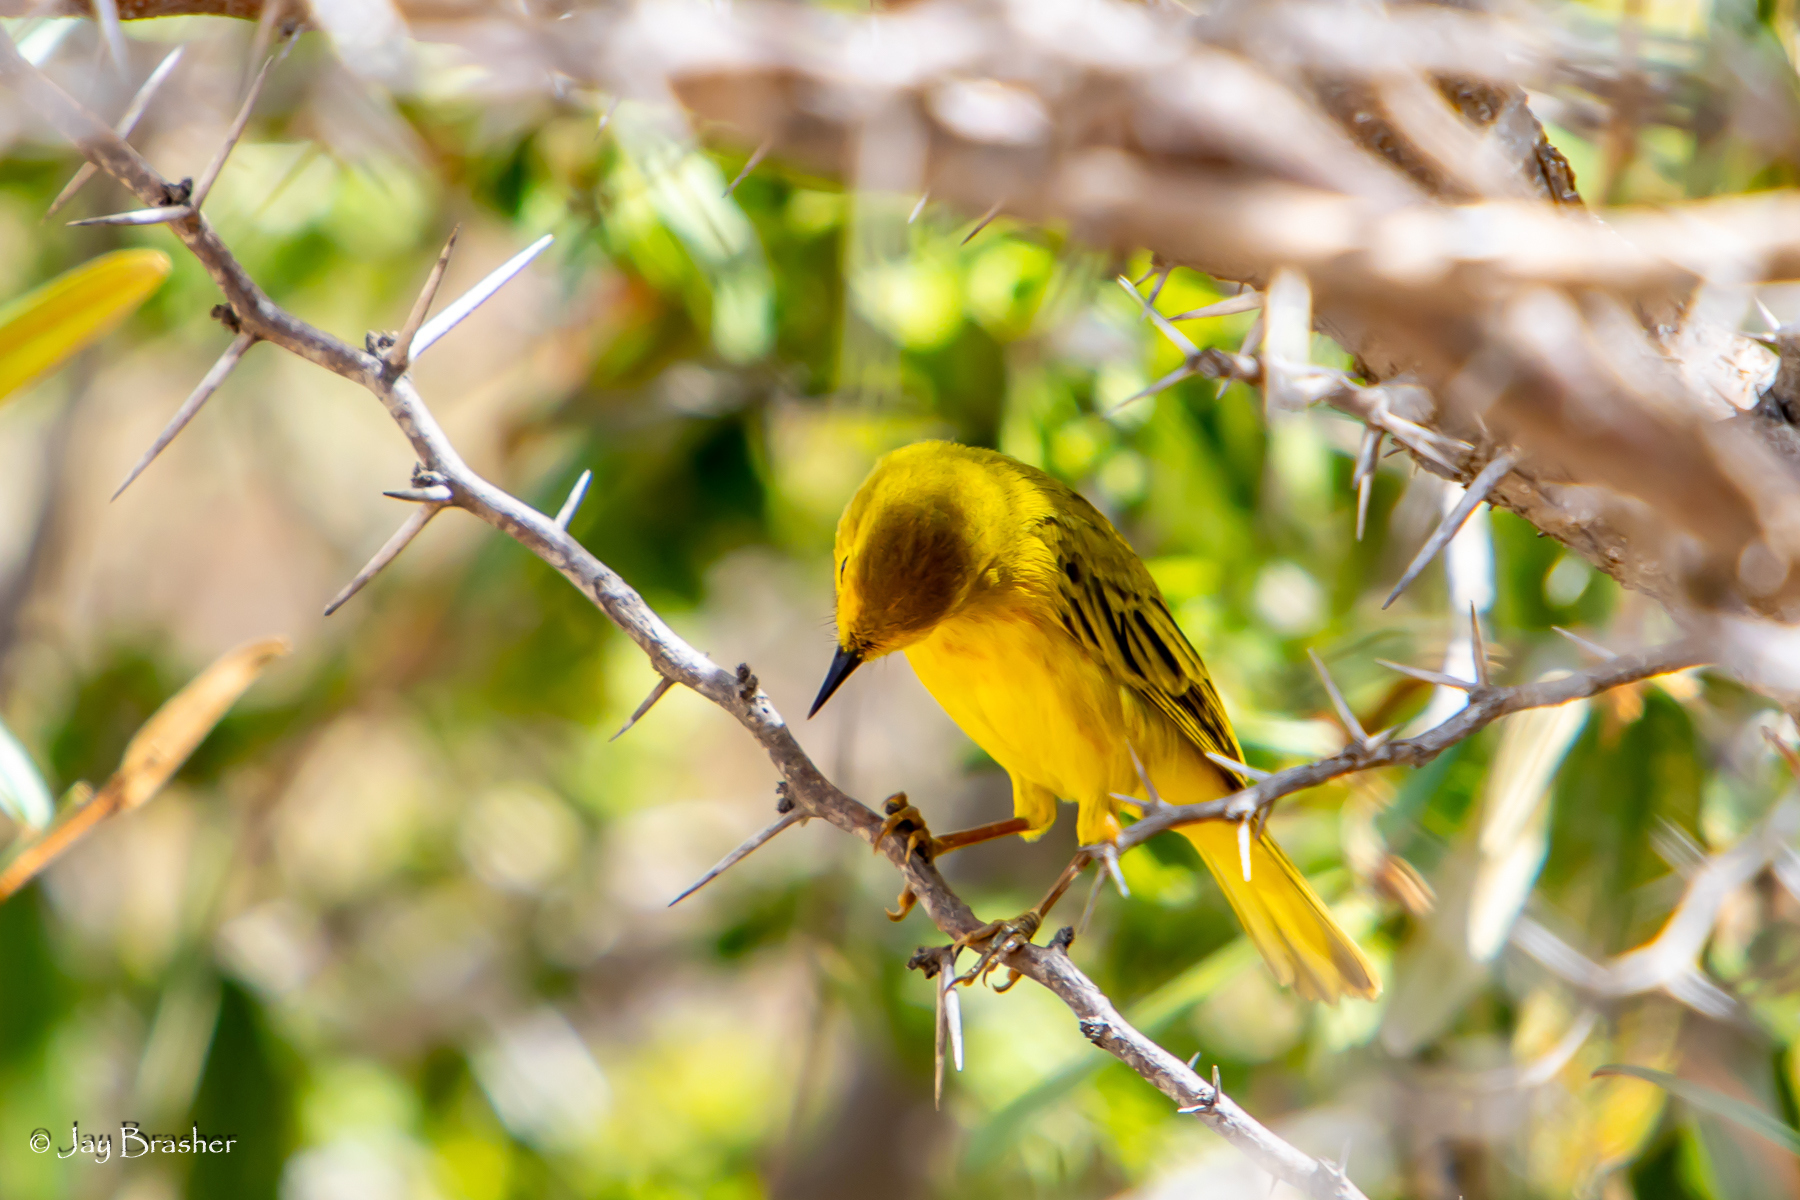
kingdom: Animalia
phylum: Chordata
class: Aves
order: Passeriformes
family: Parulidae
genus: Setophaga
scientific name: Setophaga petechia
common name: Yellow warbler
